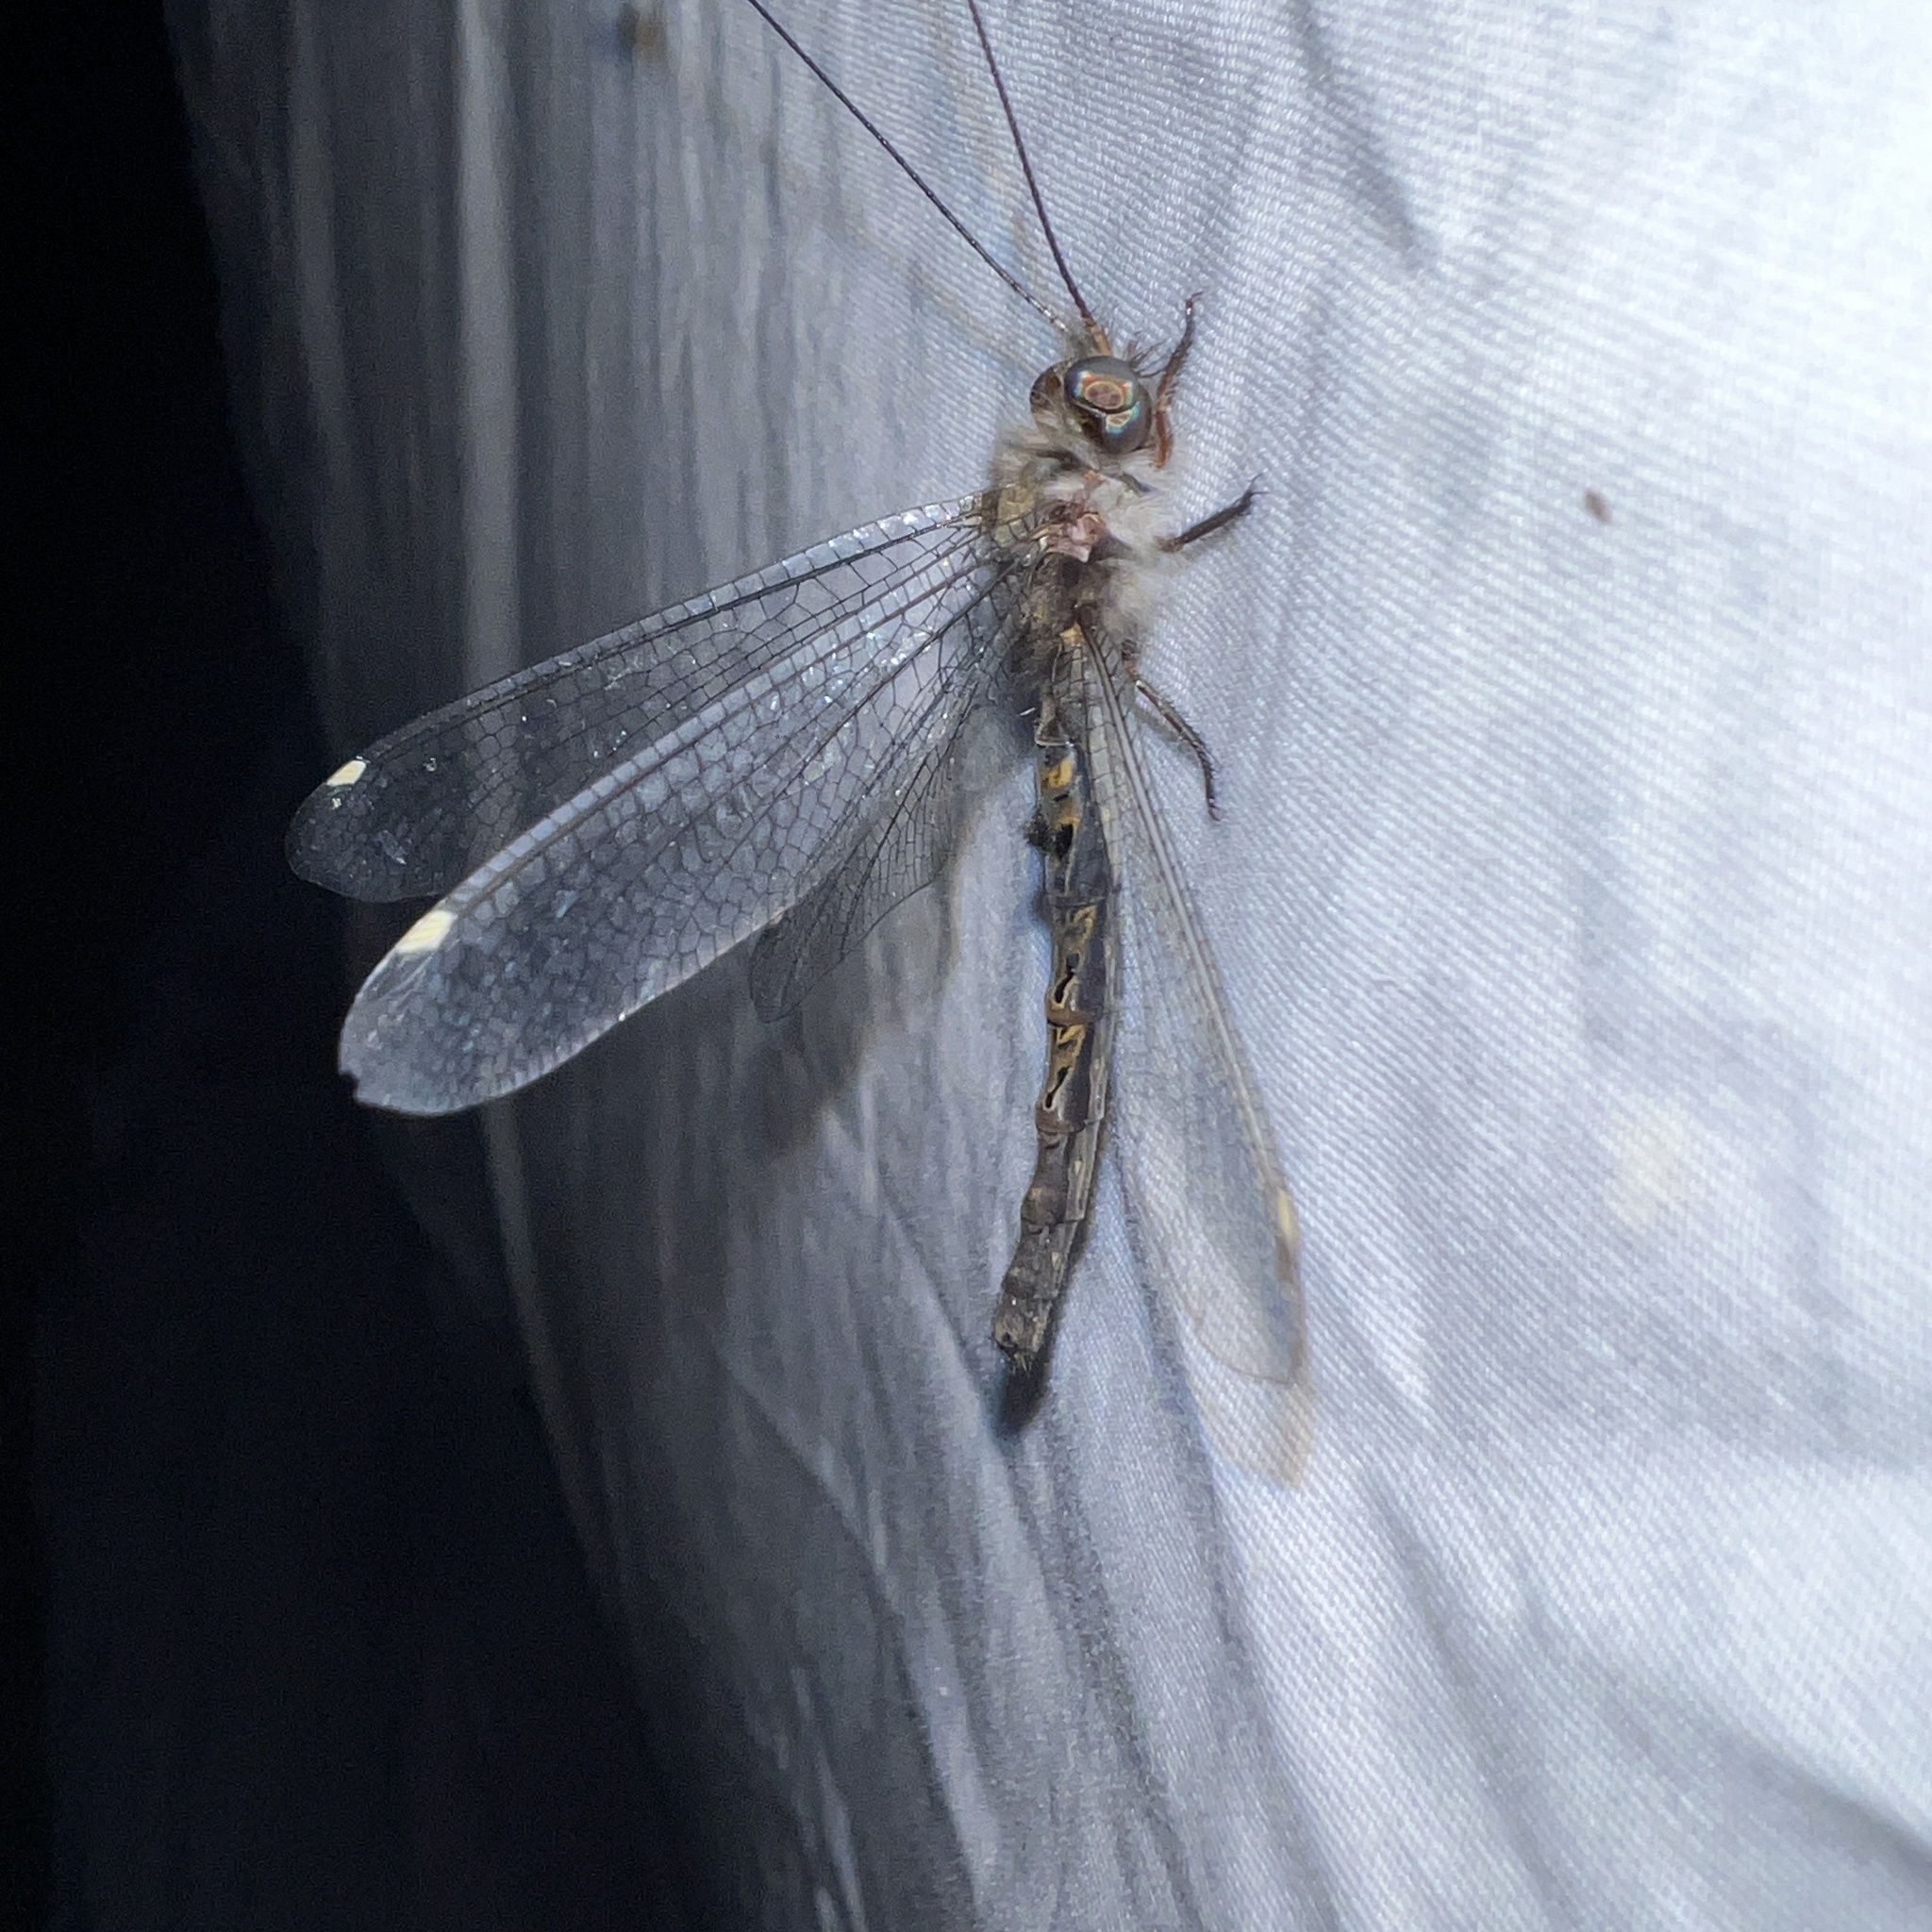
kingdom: Animalia
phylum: Arthropoda
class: Insecta
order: Neuroptera
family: Ascalaphidae
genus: Ululodes
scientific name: Ululodes quadripunctatus
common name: Four-spotted owlfly
